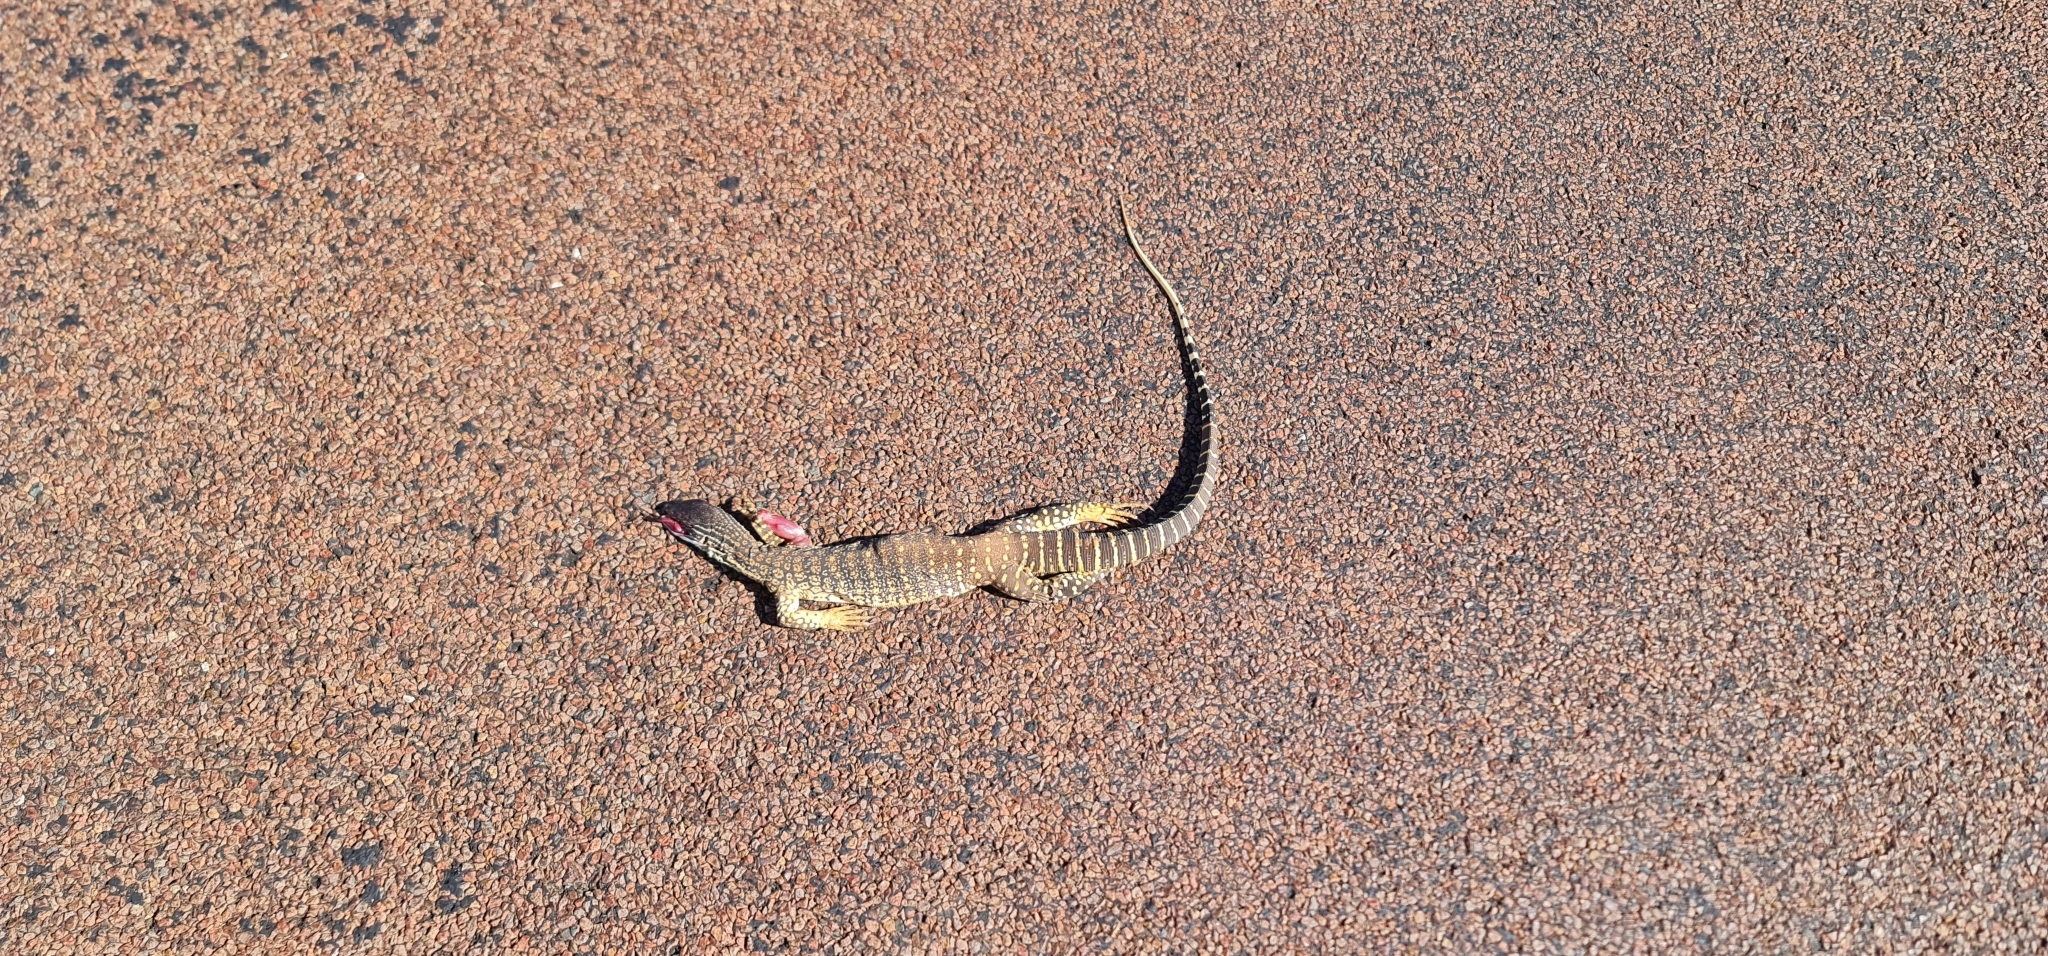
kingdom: Animalia
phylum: Chordata
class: Squamata
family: Varanidae
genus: Varanus
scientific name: Varanus gouldii
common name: Gould's goanna
